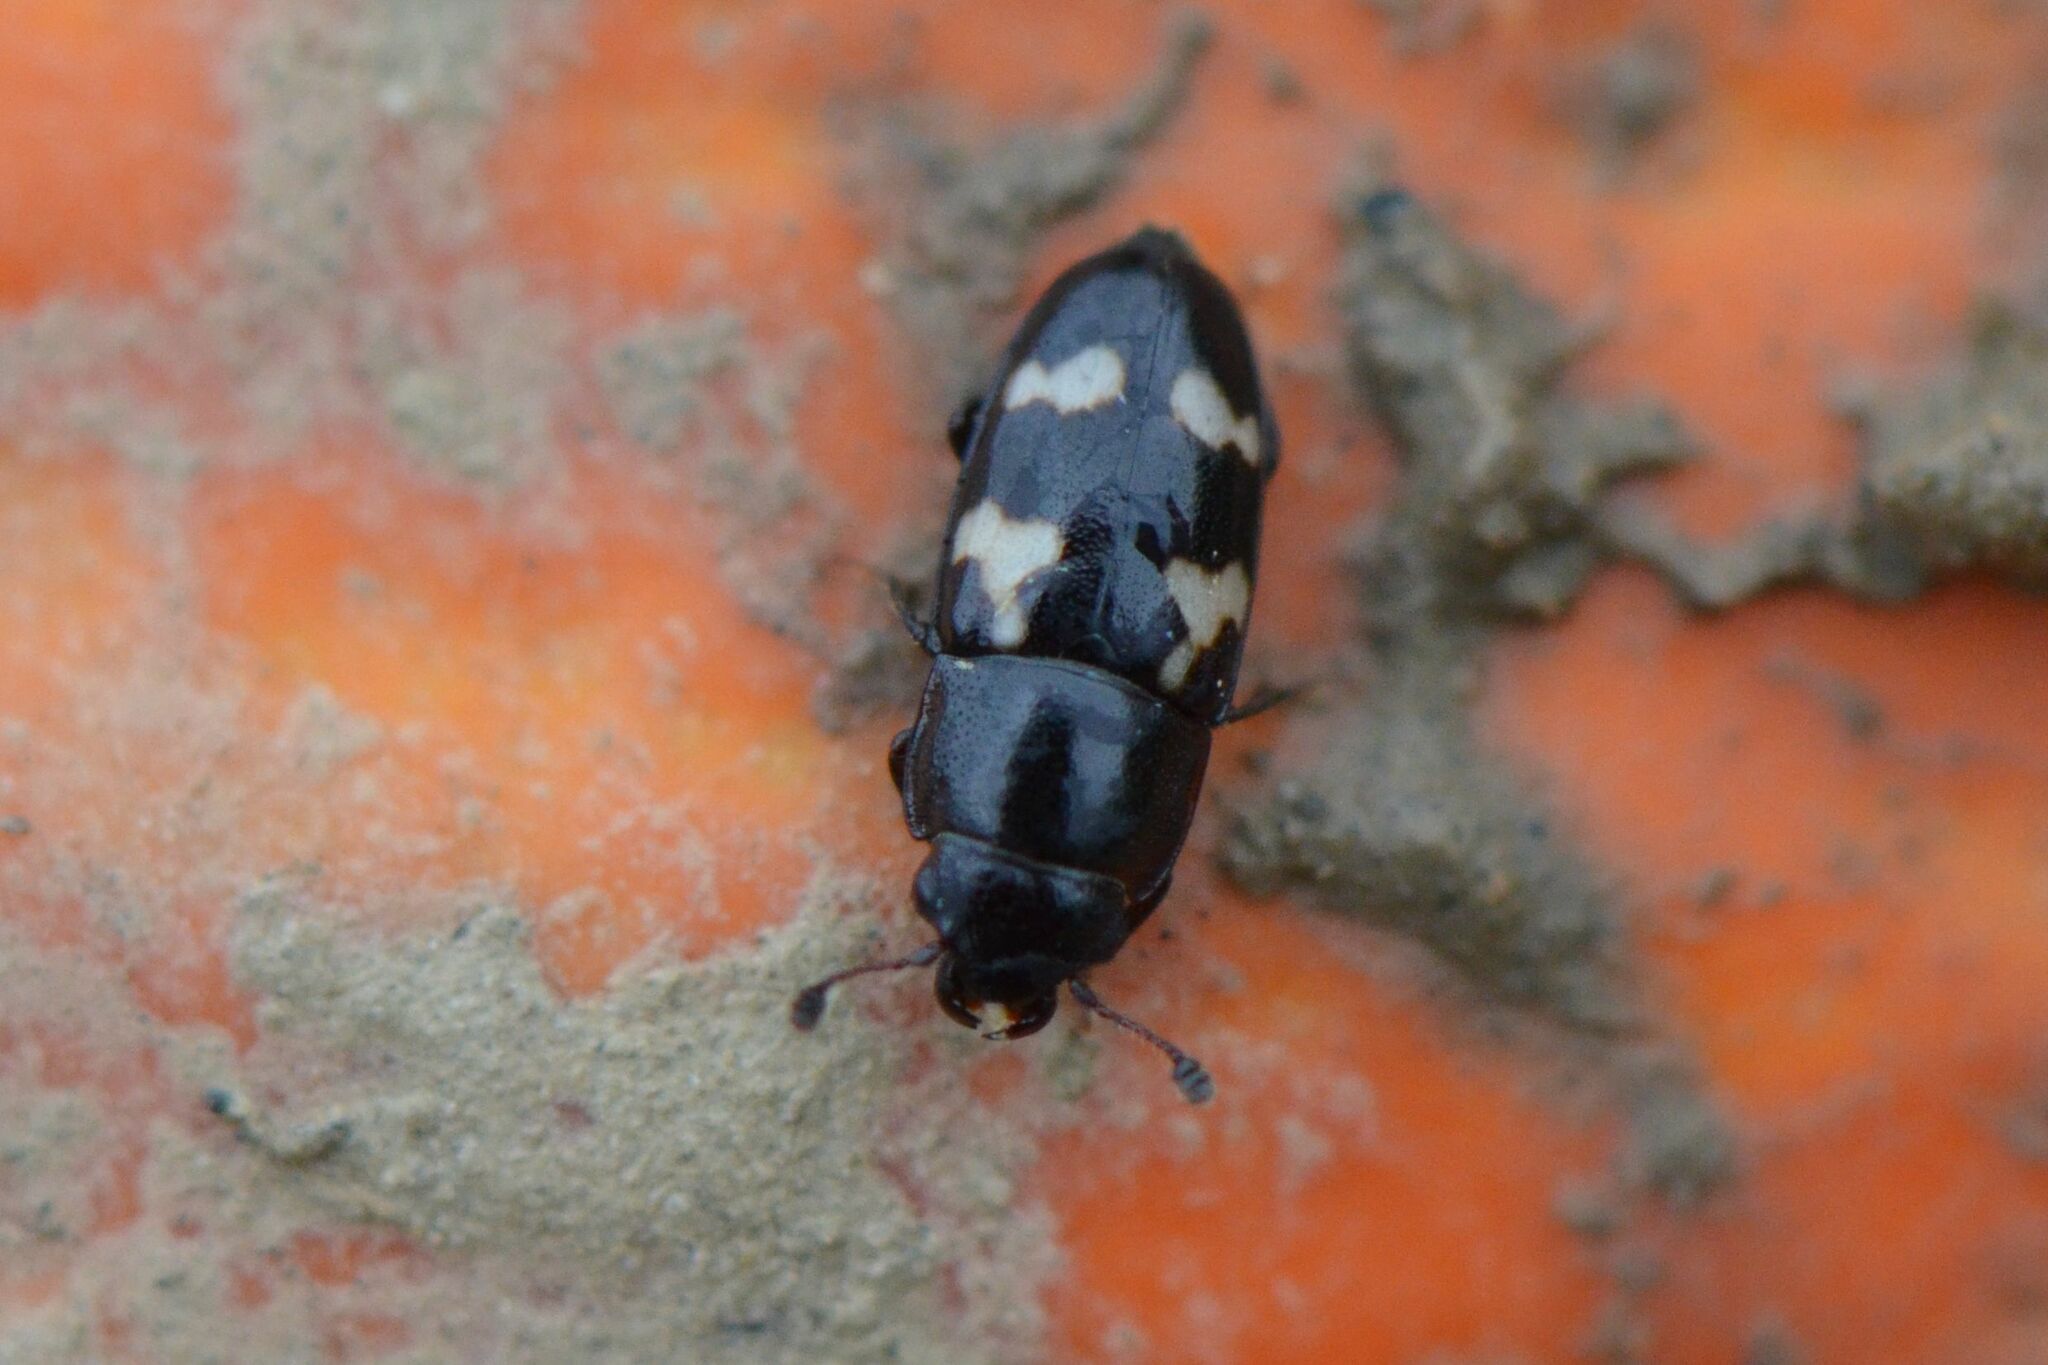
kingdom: Animalia
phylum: Arthropoda
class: Insecta
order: Coleoptera
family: Nitidulidae
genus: Glischrochilus
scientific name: Glischrochilus quadriguttatus
